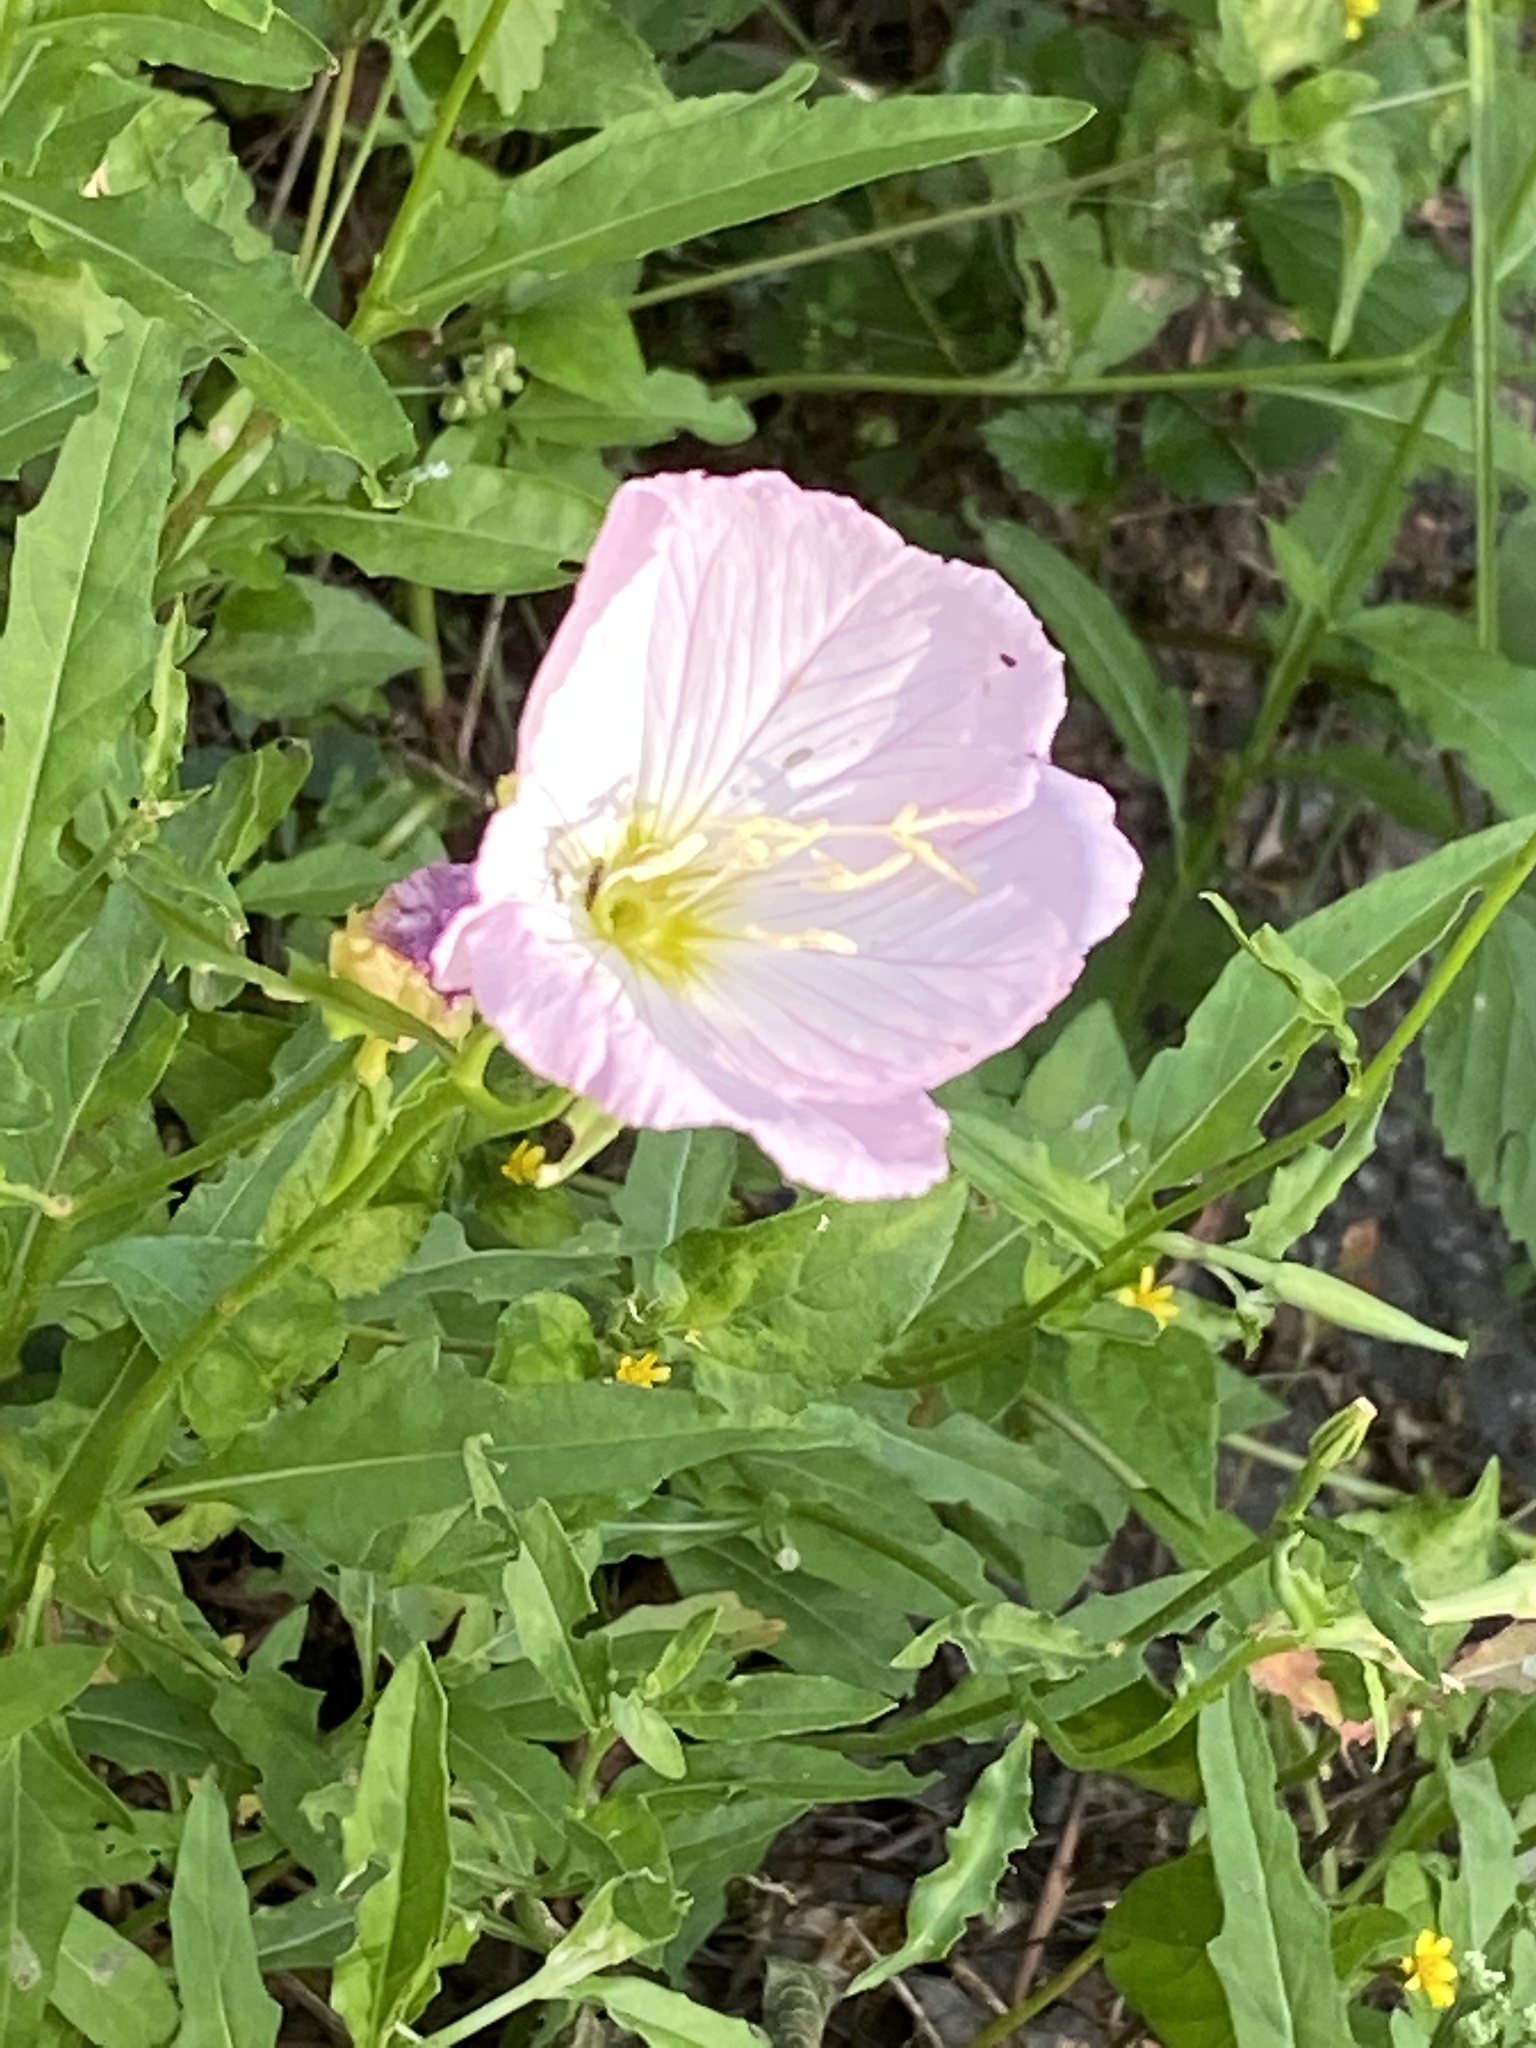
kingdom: Plantae
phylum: Tracheophyta
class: Magnoliopsida
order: Myrtales
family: Onagraceae
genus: Oenothera
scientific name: Oenothera speciosa
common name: White evening-primrose
